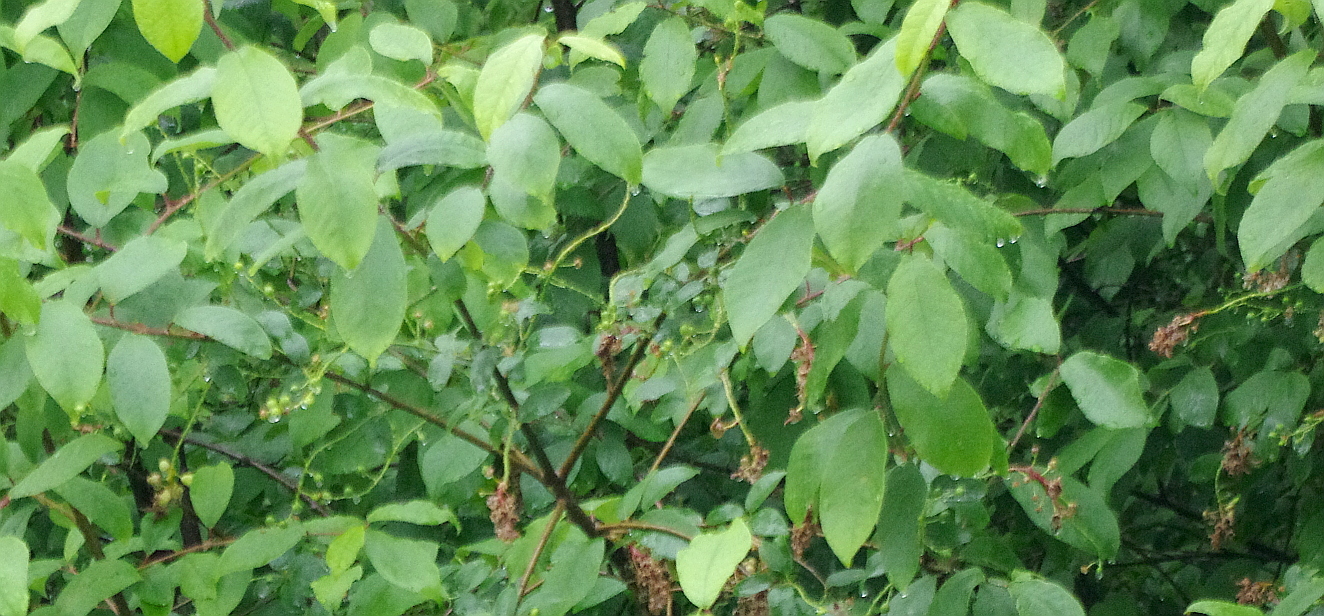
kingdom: Plantae
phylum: Tracheophyta
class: Magnoliopsida
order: Rosales
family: Rosaceae
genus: Prunus
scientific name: Prunus padus
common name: Bird cherry
